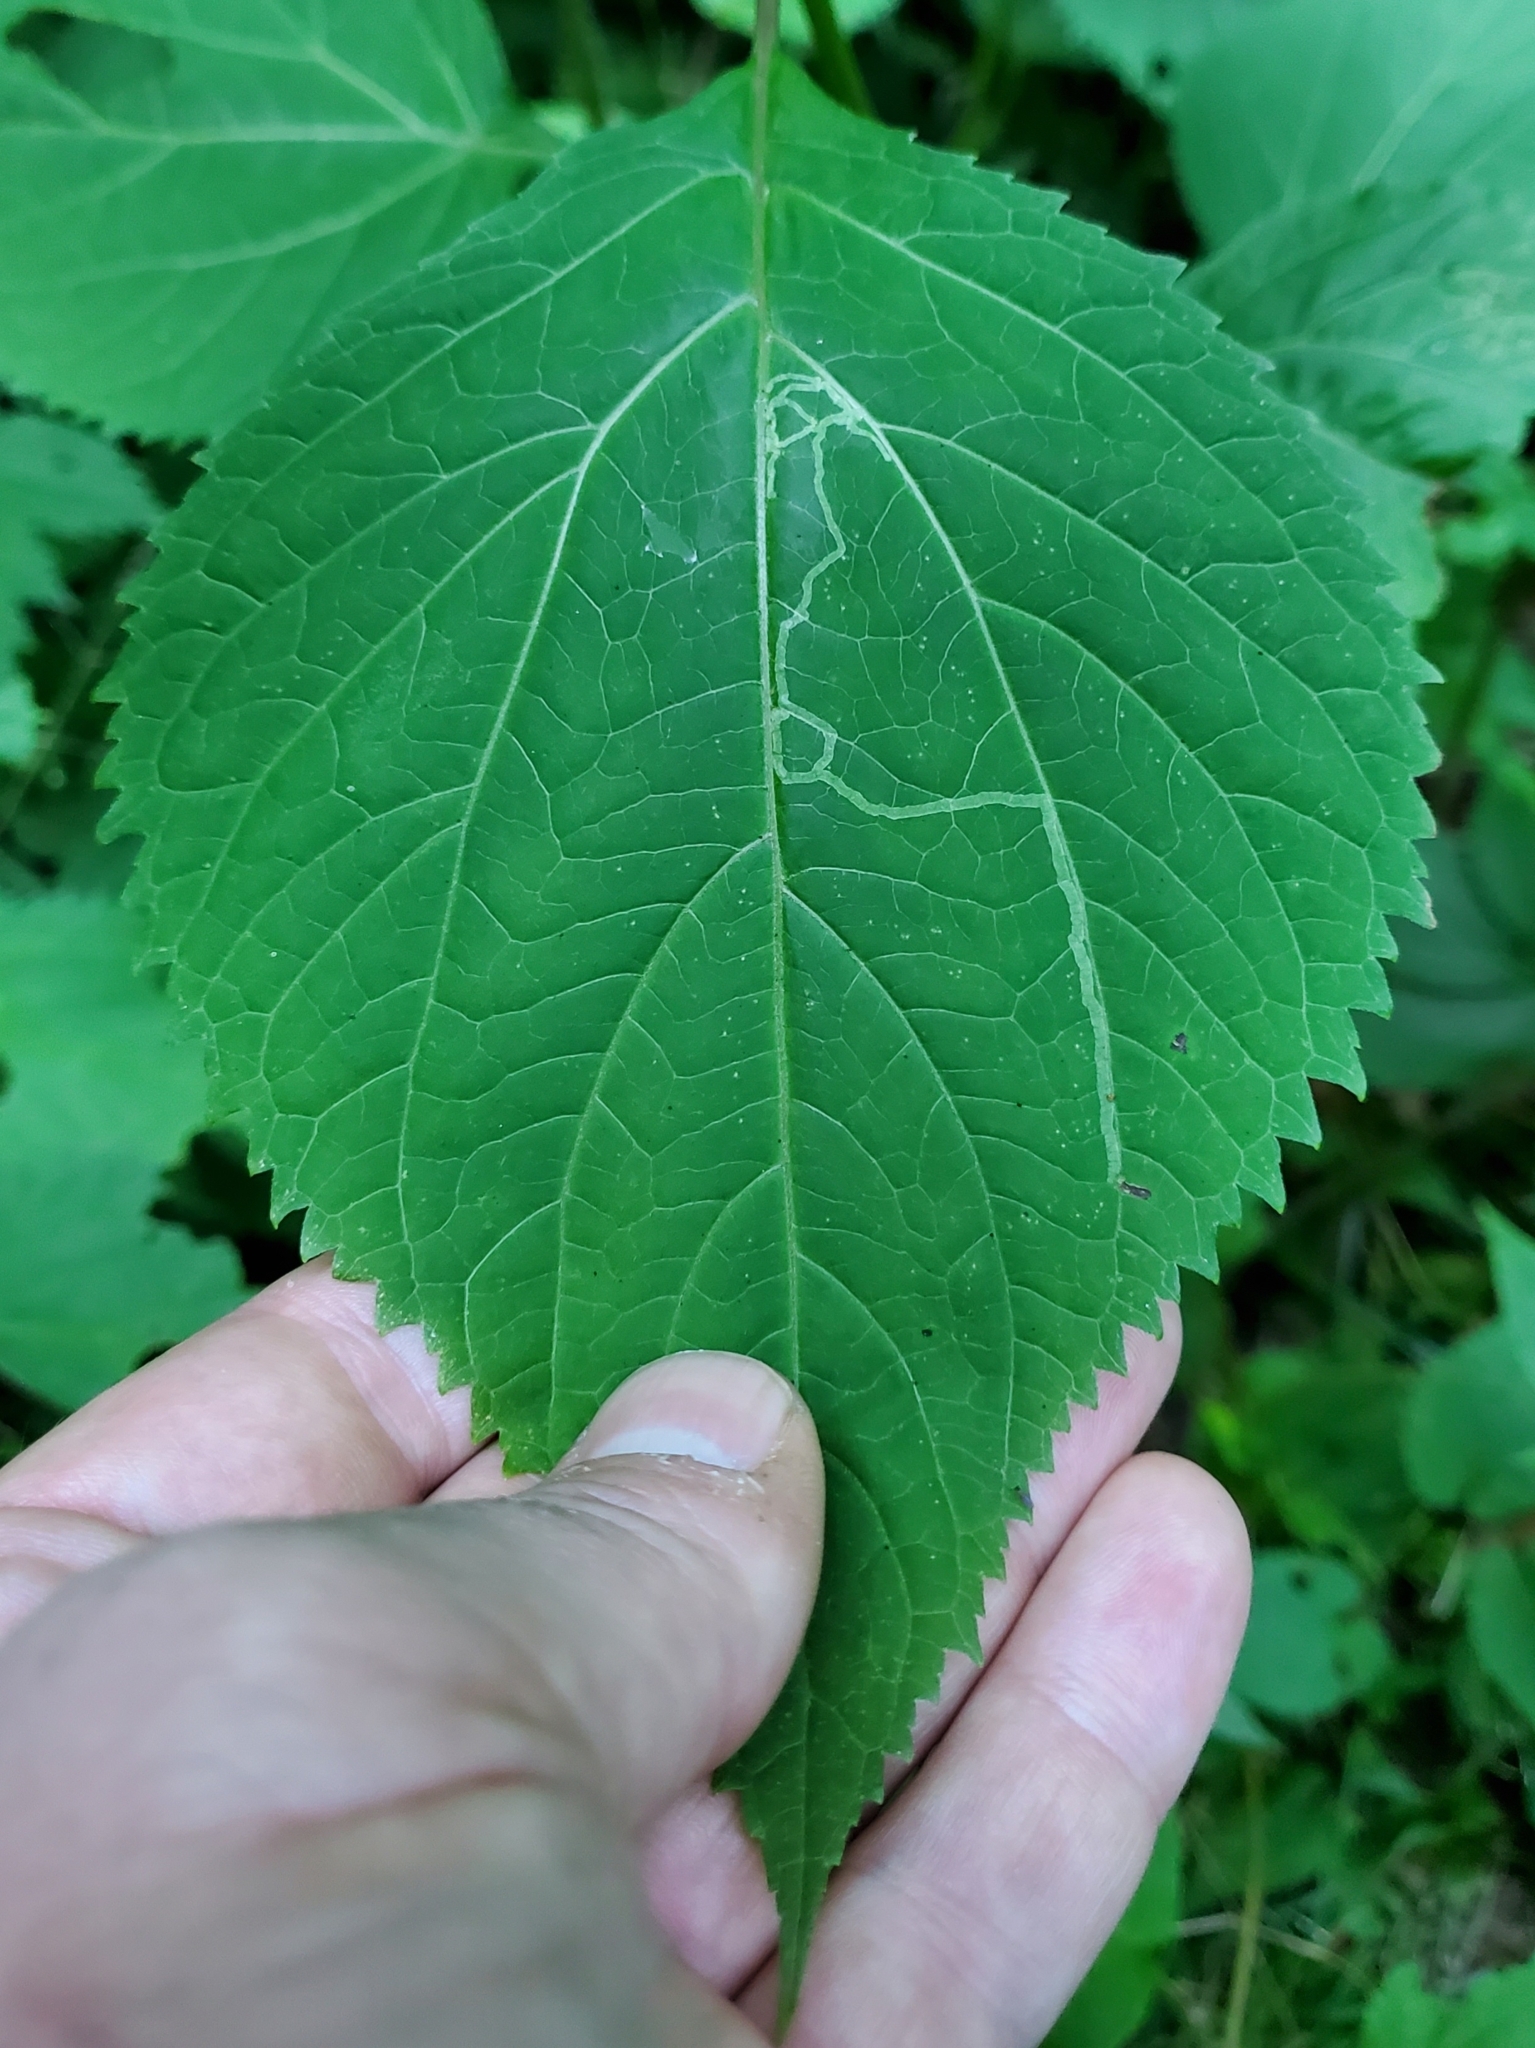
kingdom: Animalia
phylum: Arthropoda
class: Insecta
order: Diptera
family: Agromyzidae
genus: Liriomyza
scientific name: Liriomyza
